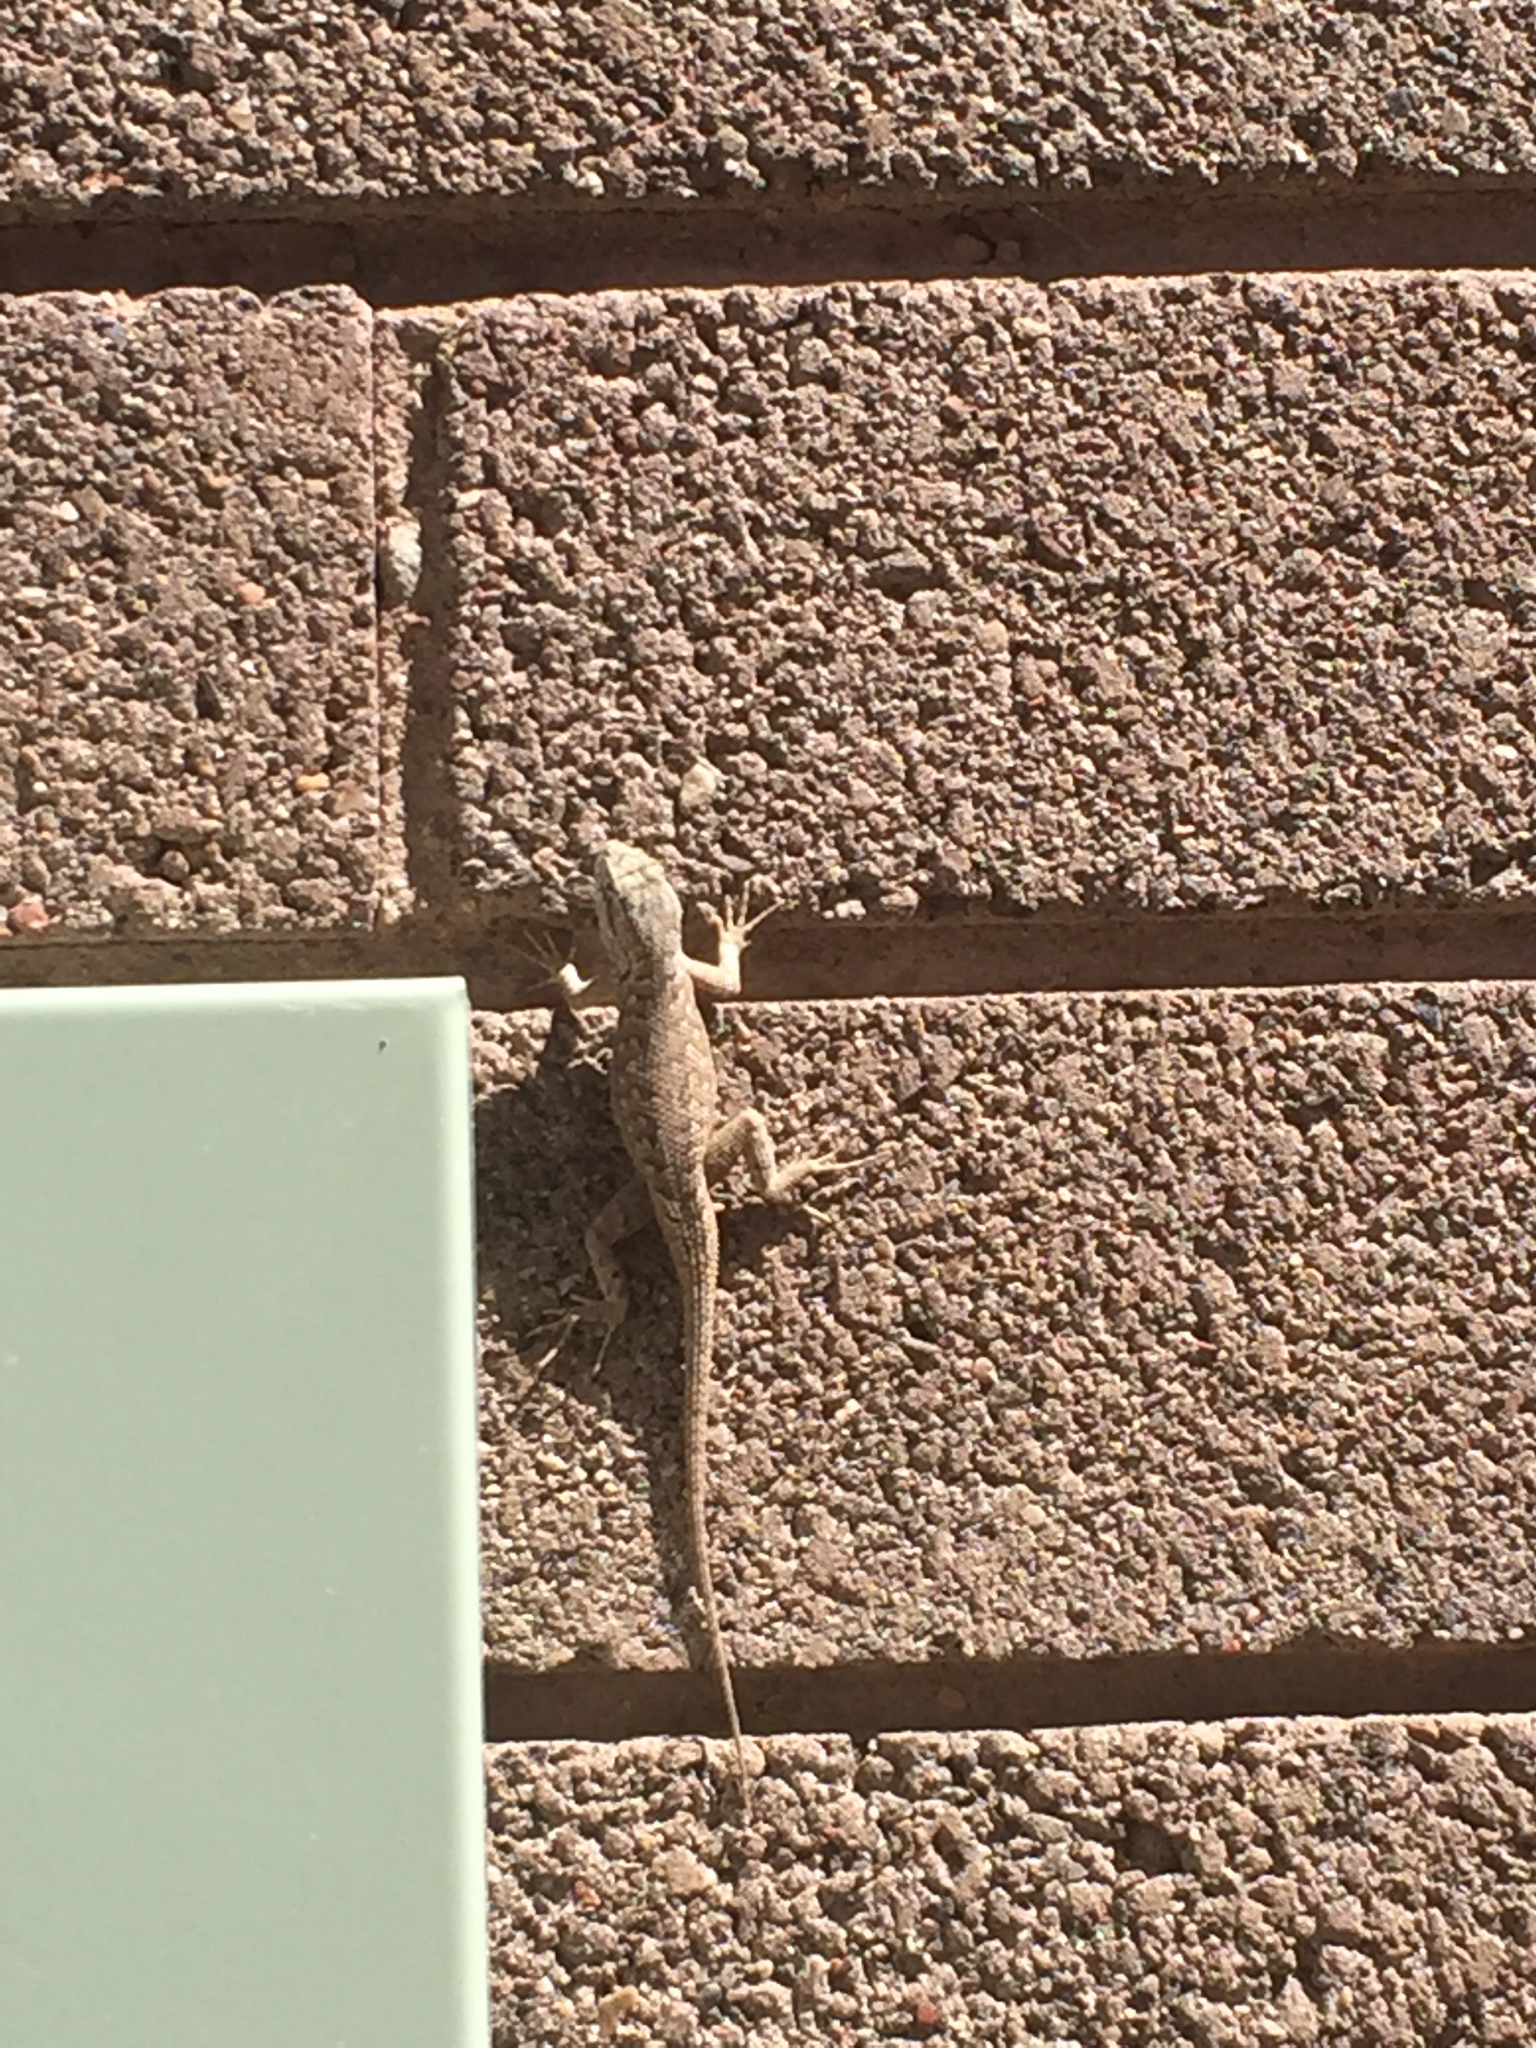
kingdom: Animalia
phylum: Chordata
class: Squamata
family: Phrynosomatidae
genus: Sceloporus
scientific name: Sceloporus tristichus
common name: Plateau fence lizard
